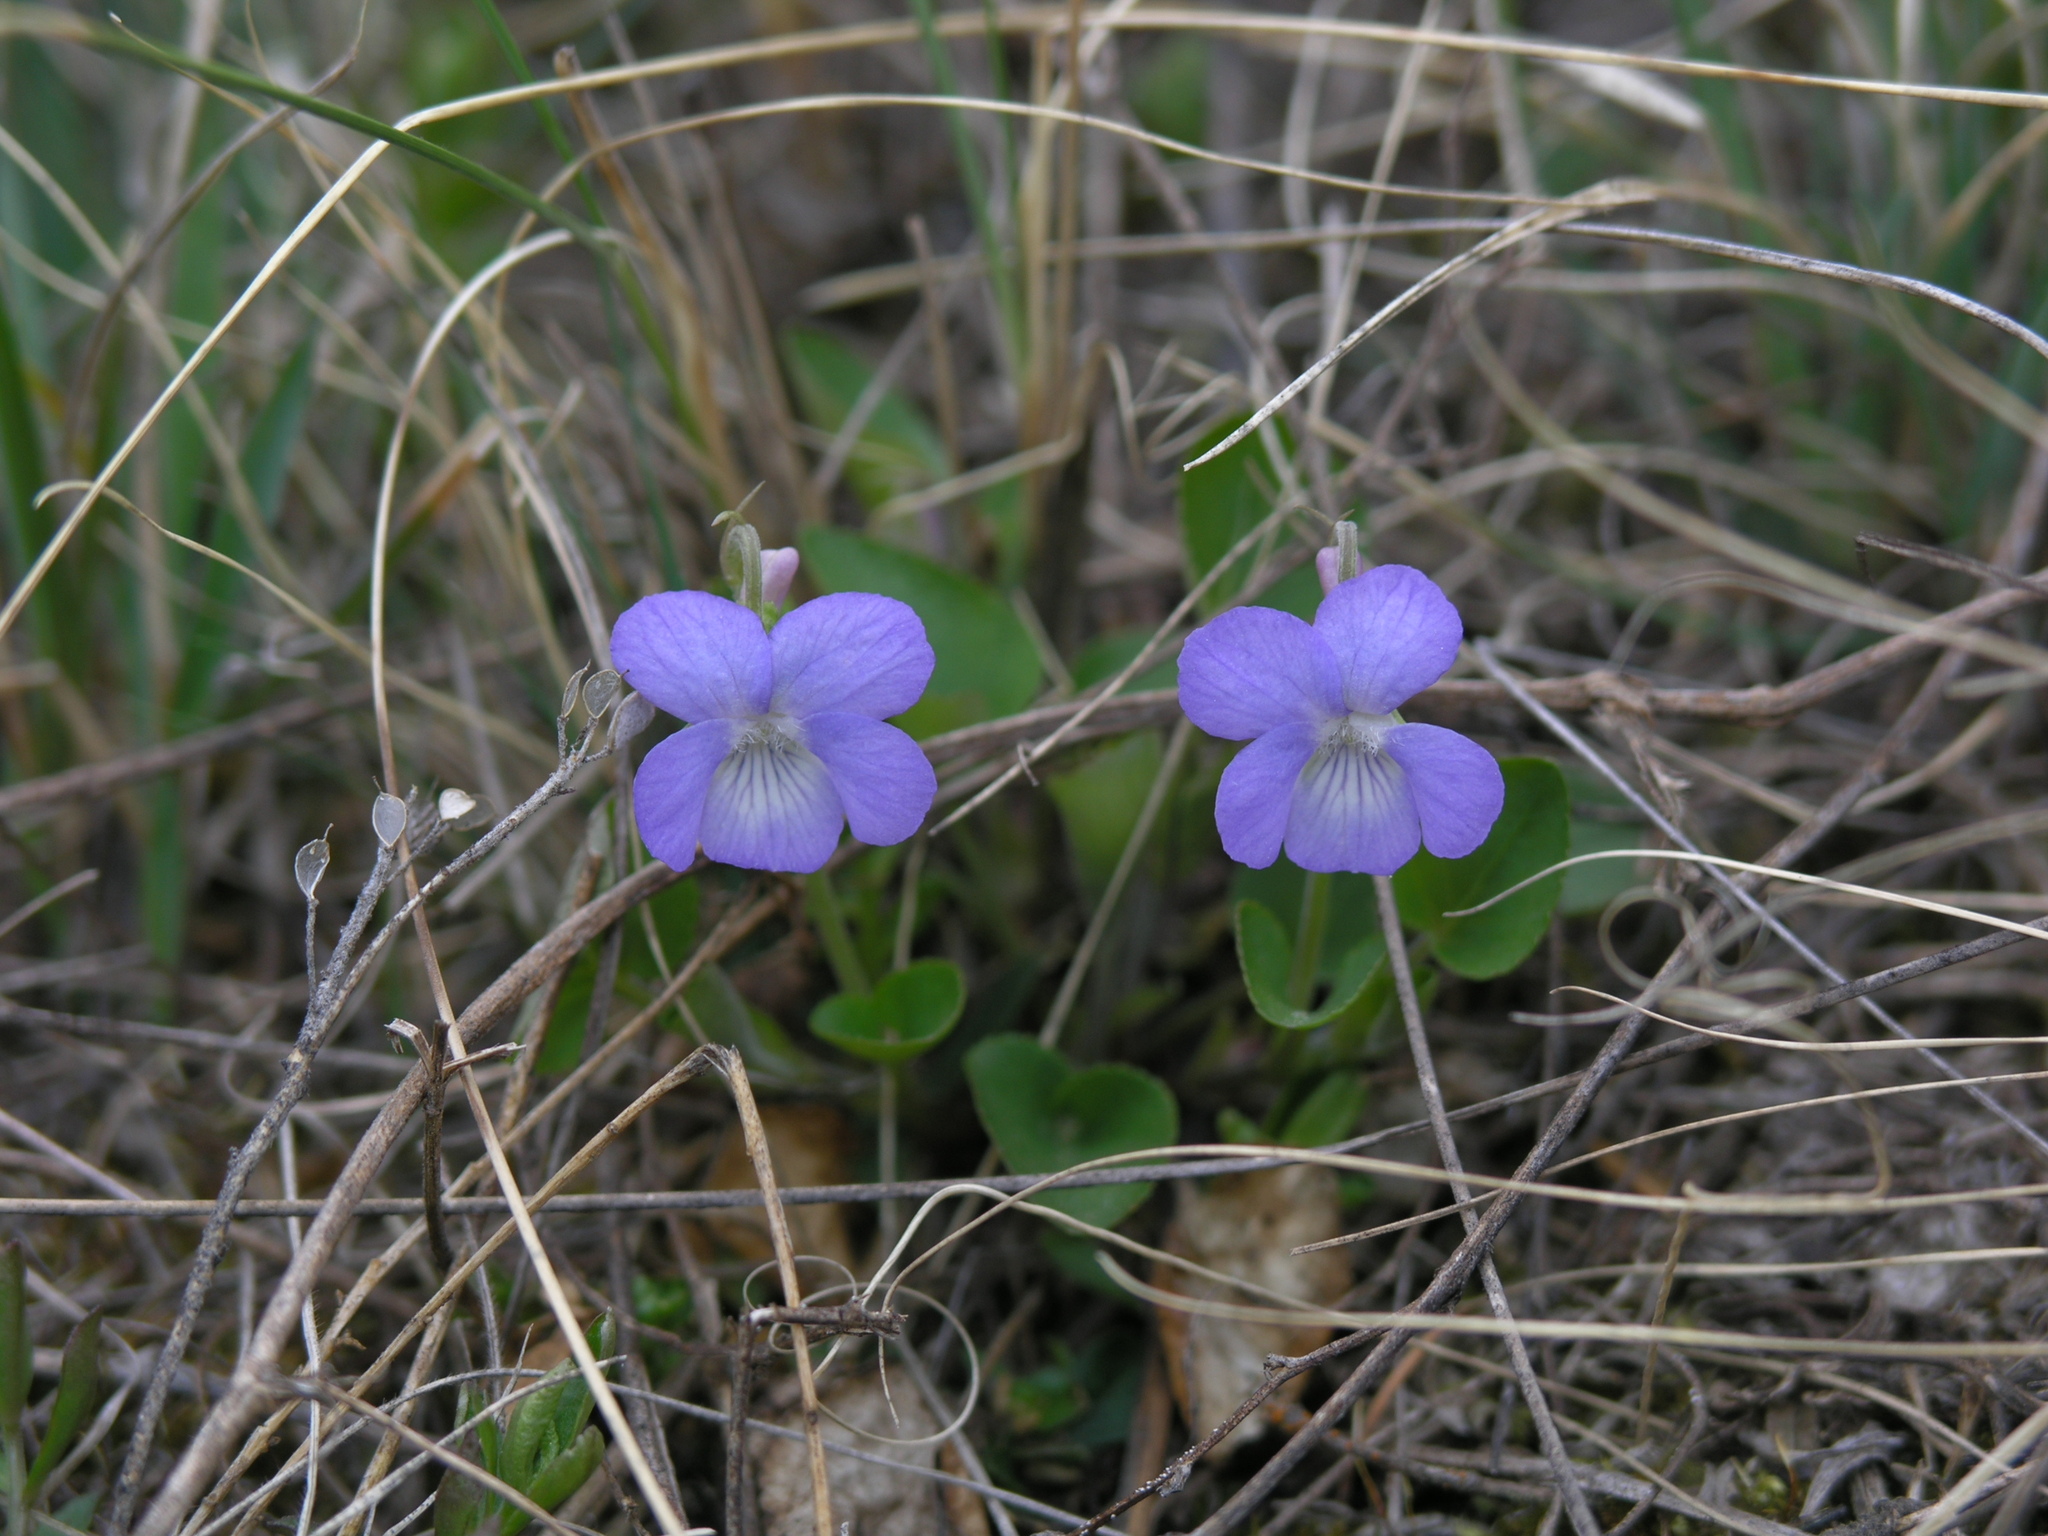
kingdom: Plantae
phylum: Tracheophyta
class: Magnoliopsida
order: Malpighiales
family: Violaceae
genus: Viola
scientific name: Viola rupestris
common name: Teesdale violet
